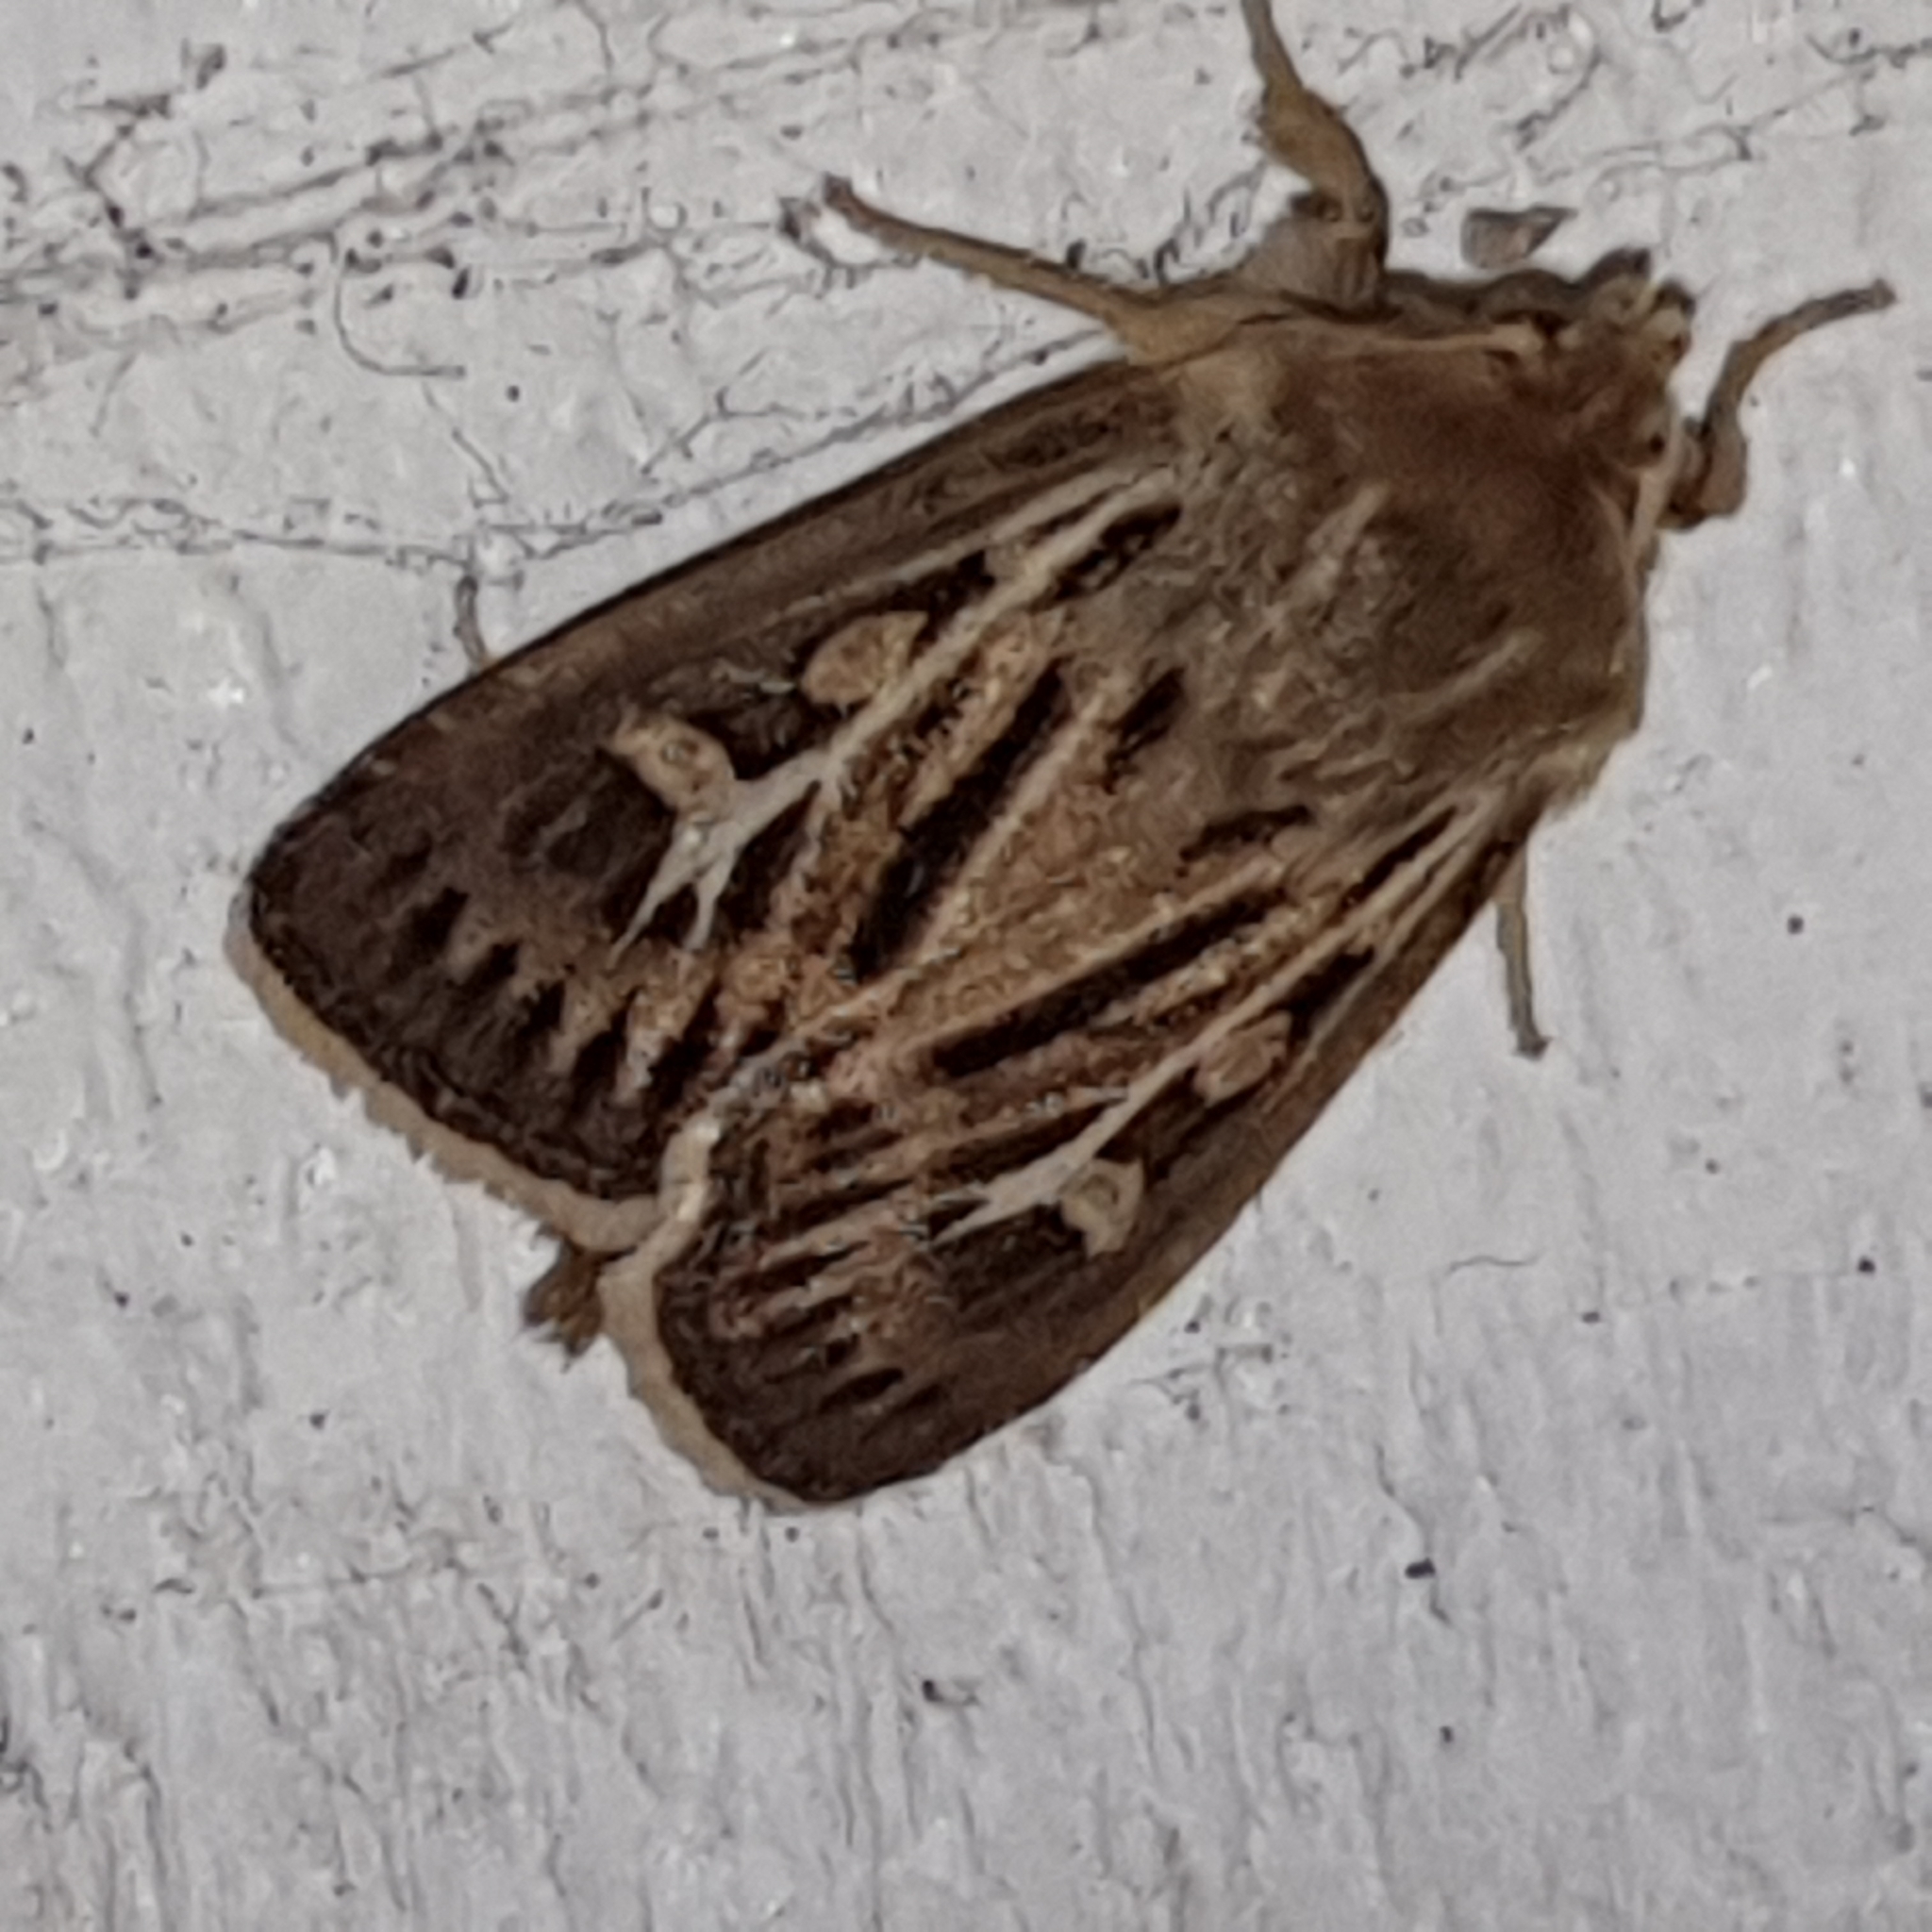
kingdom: Animalia
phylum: Arthropoda
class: Insecta
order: Lepidoptera
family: Noctuidae
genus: Cerapteryx
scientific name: Cerapteryx graminis
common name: Antler moth
